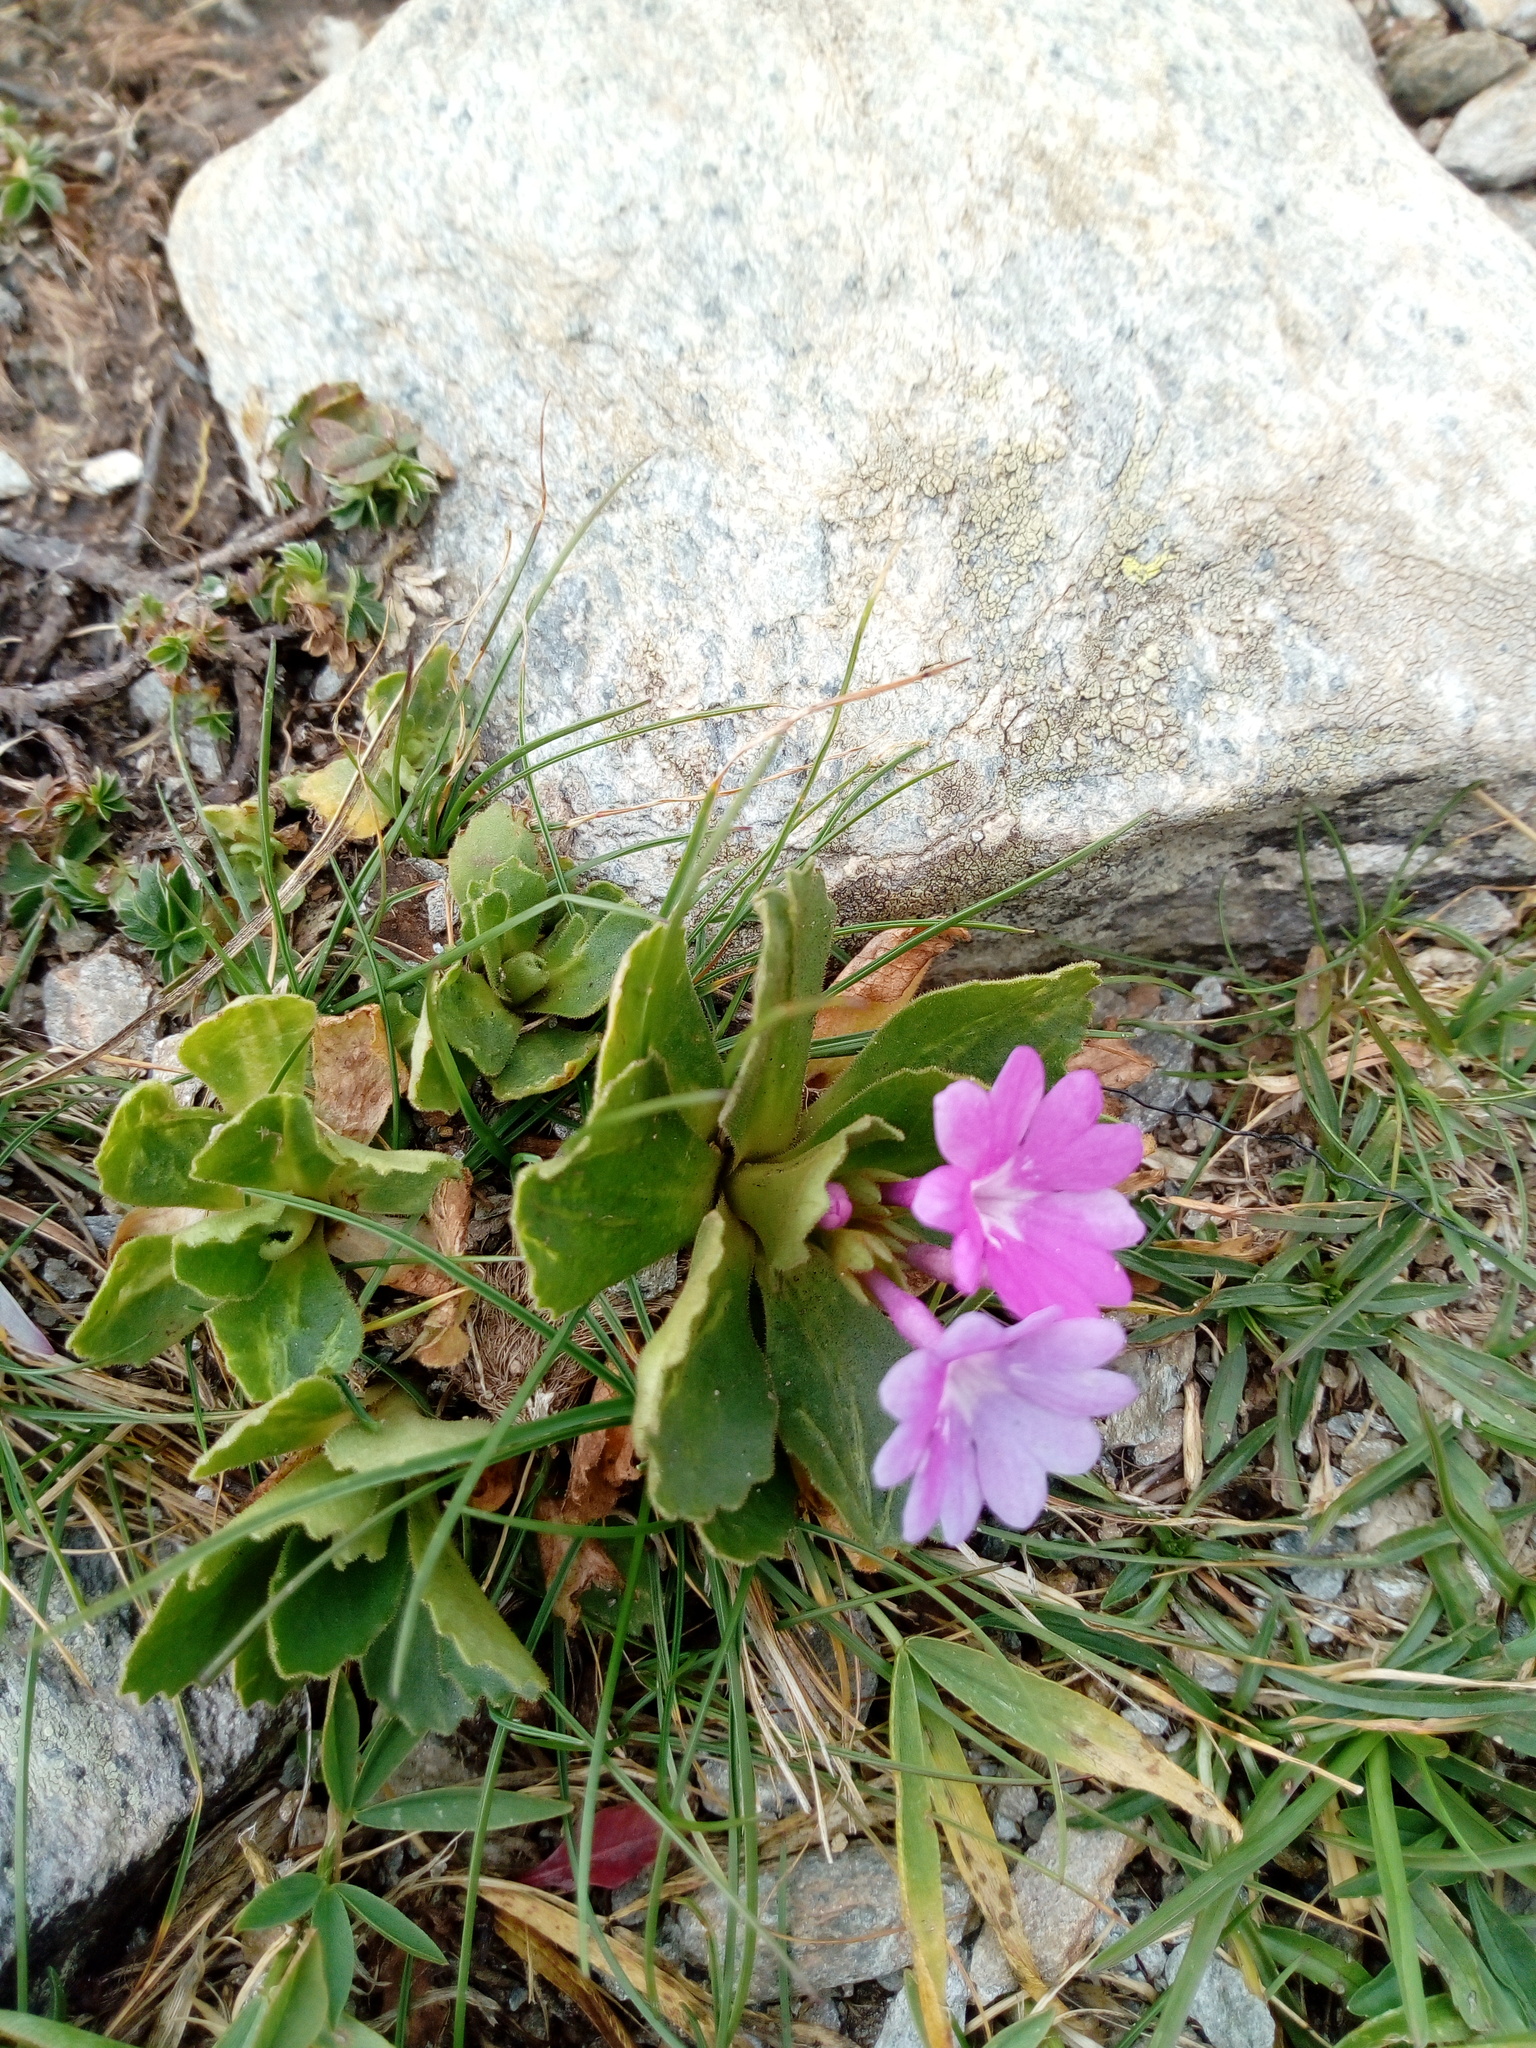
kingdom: Plantae
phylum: Tracheophyta
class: Magnoliopsida
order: Ericales
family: Primulaceae
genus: Primula
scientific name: Primula hirsuta
